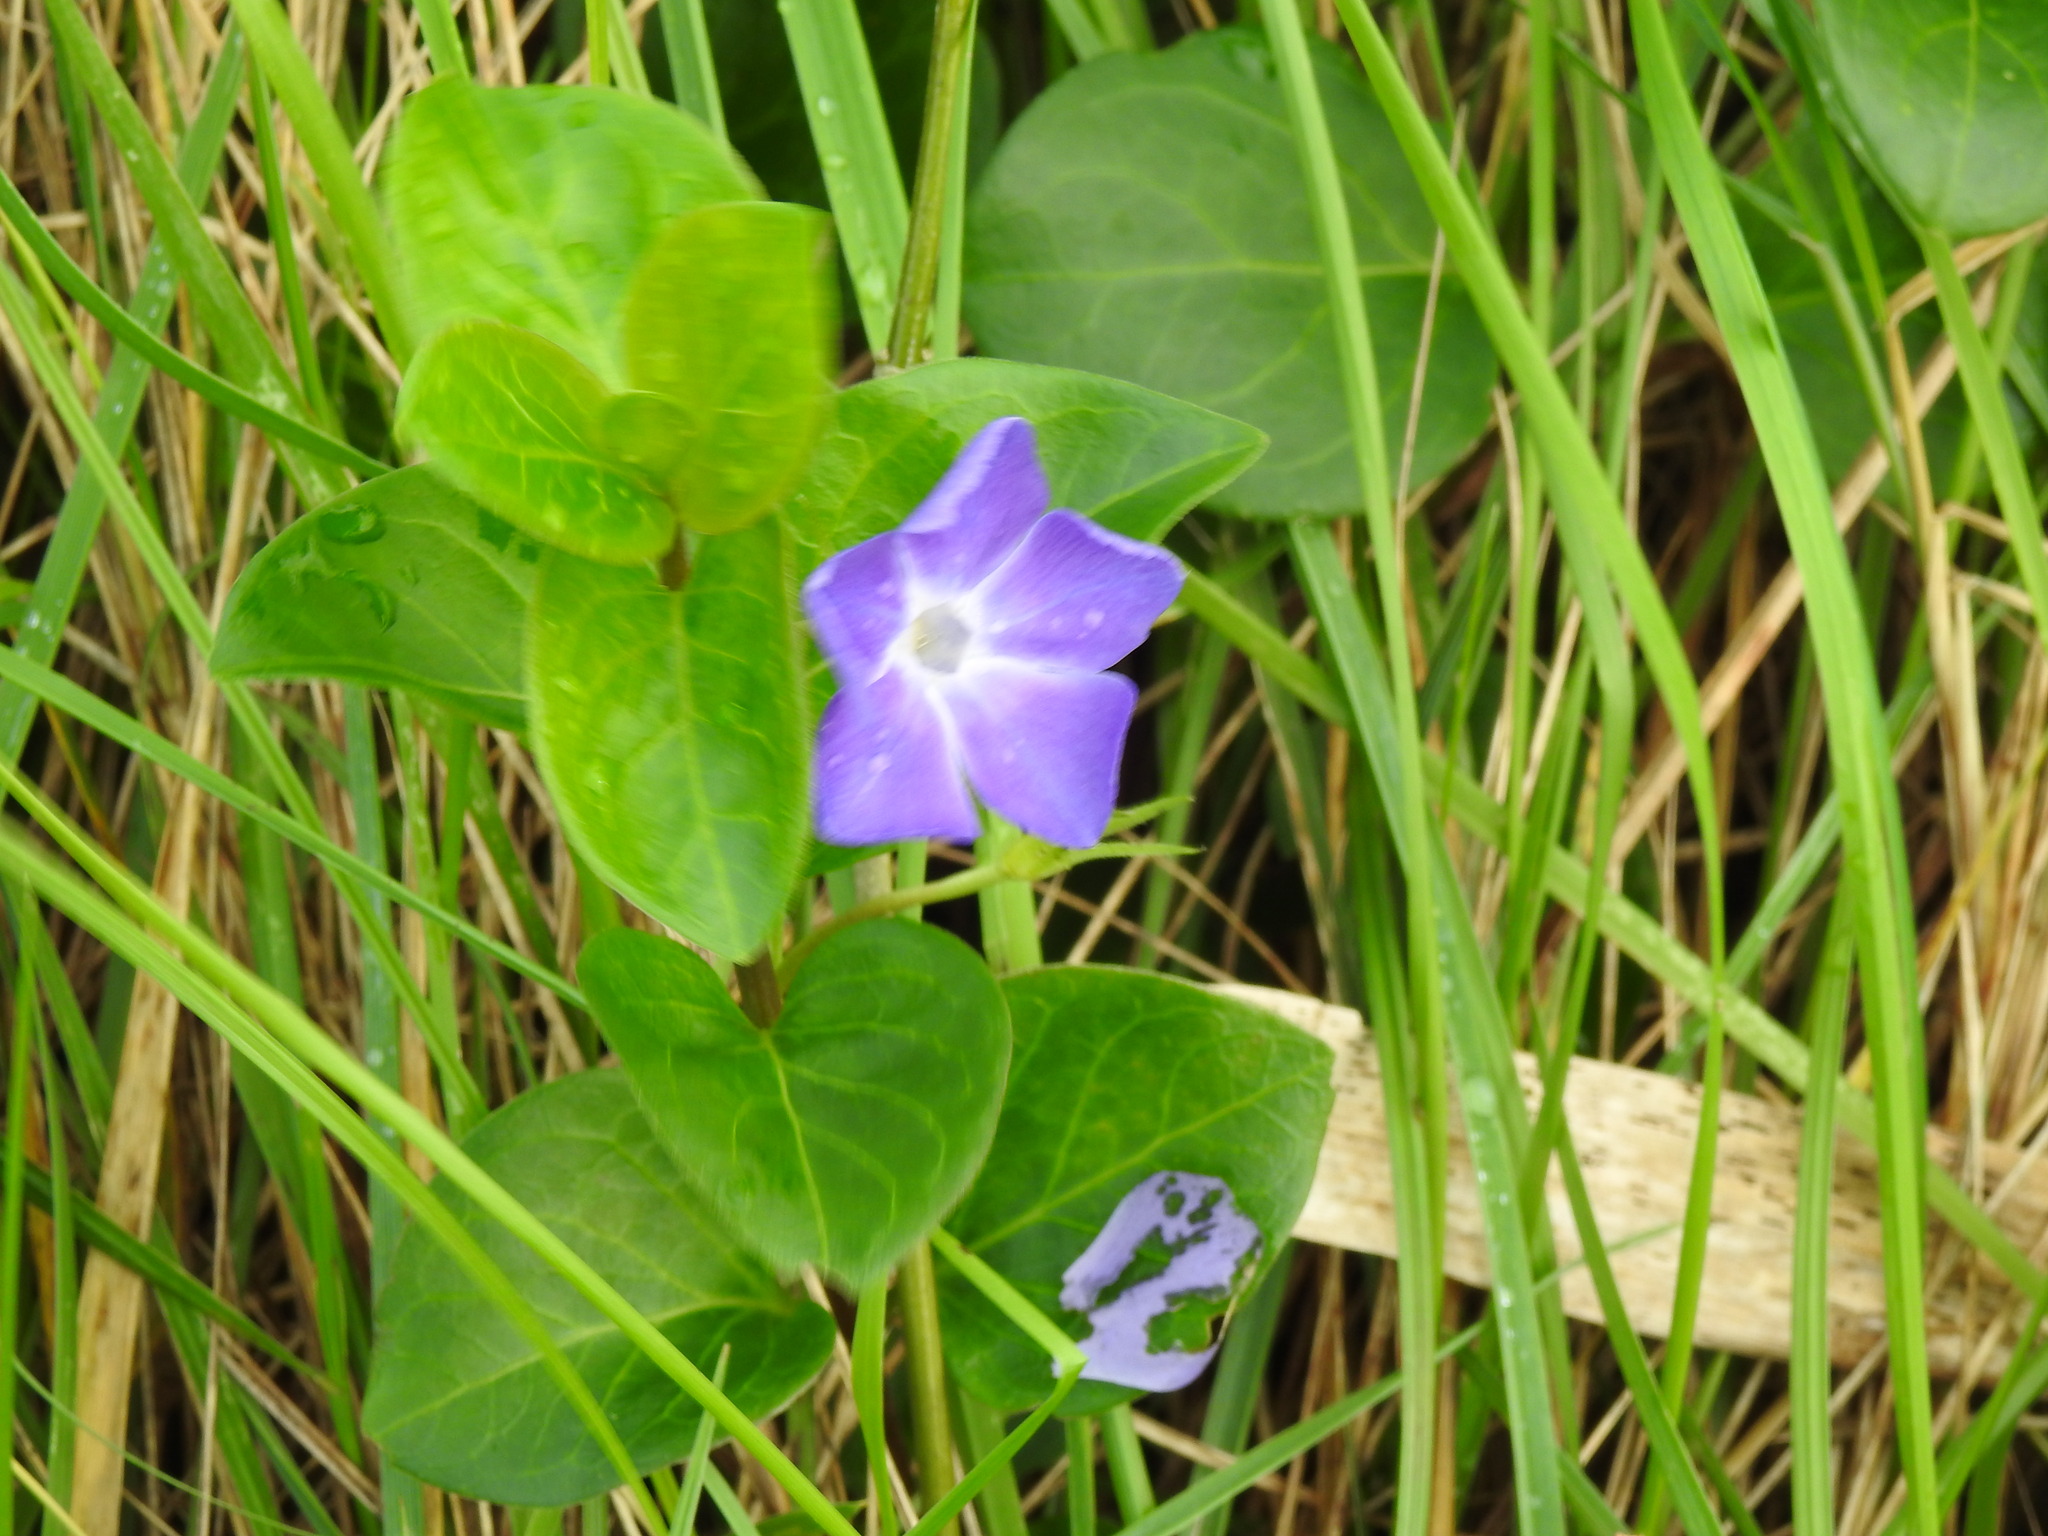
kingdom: Plantae
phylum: Tracheophyta
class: Magnoliopsida
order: Gentianales
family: Apocynaceae
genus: Vinca
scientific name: Vinca major
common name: Greater periwinkle
